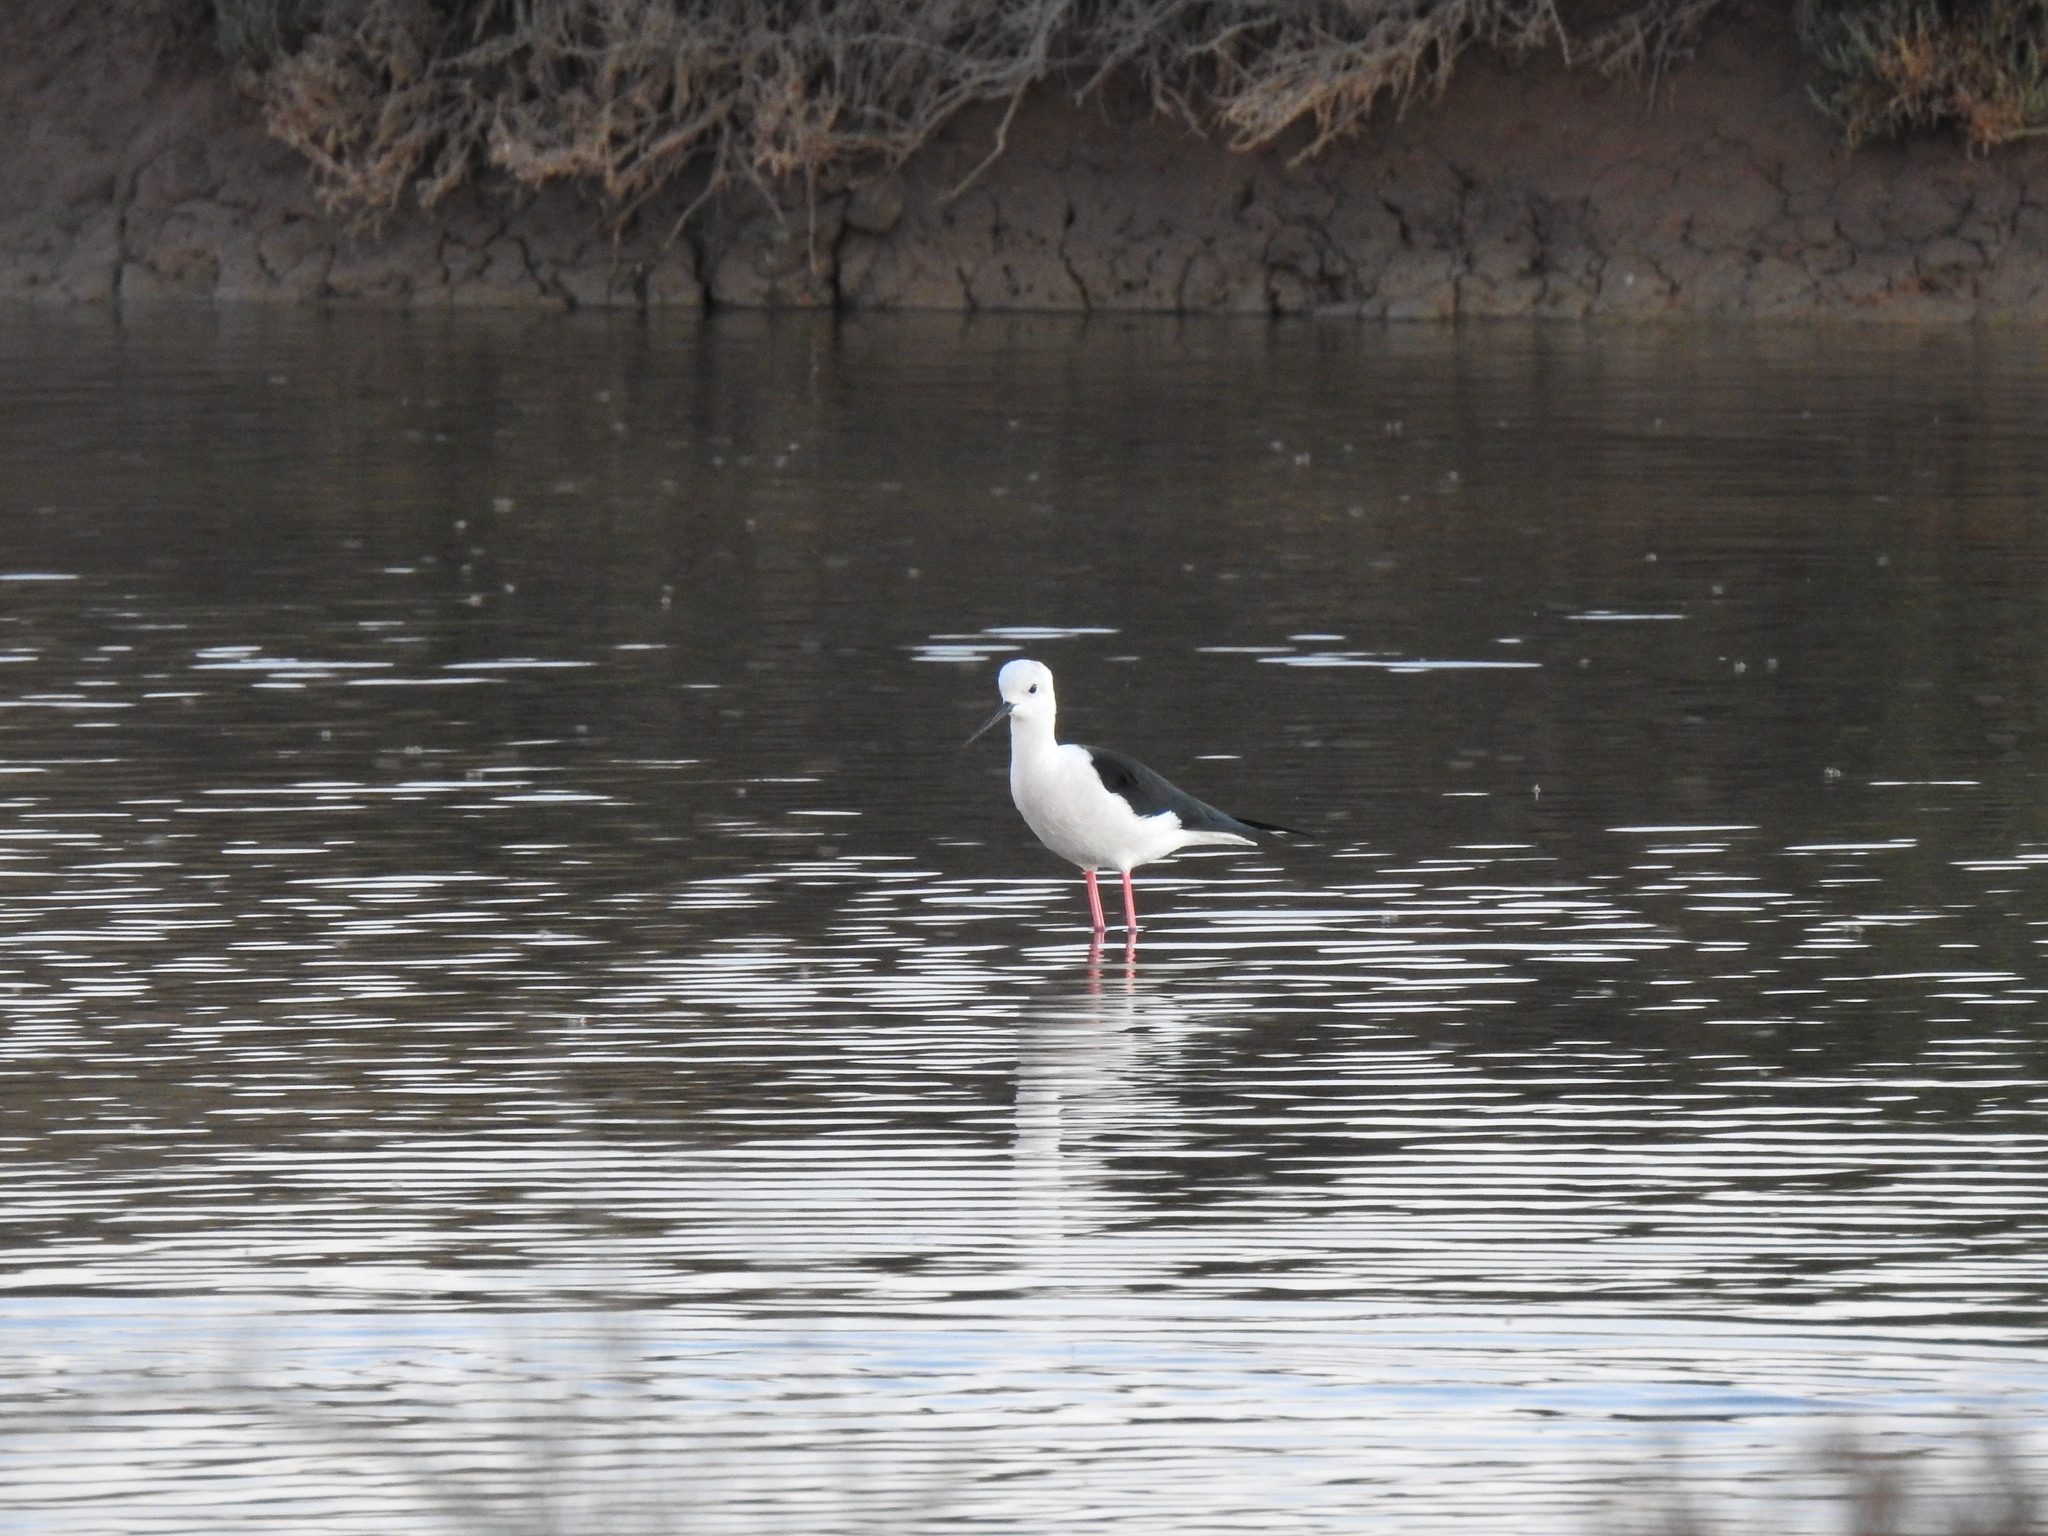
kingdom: Animalia
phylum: Chordata
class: Aves
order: Charadriiformes
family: Recurvirostridae
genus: Himantopus
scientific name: Himantopus himantopus
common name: Black-winged stilt
